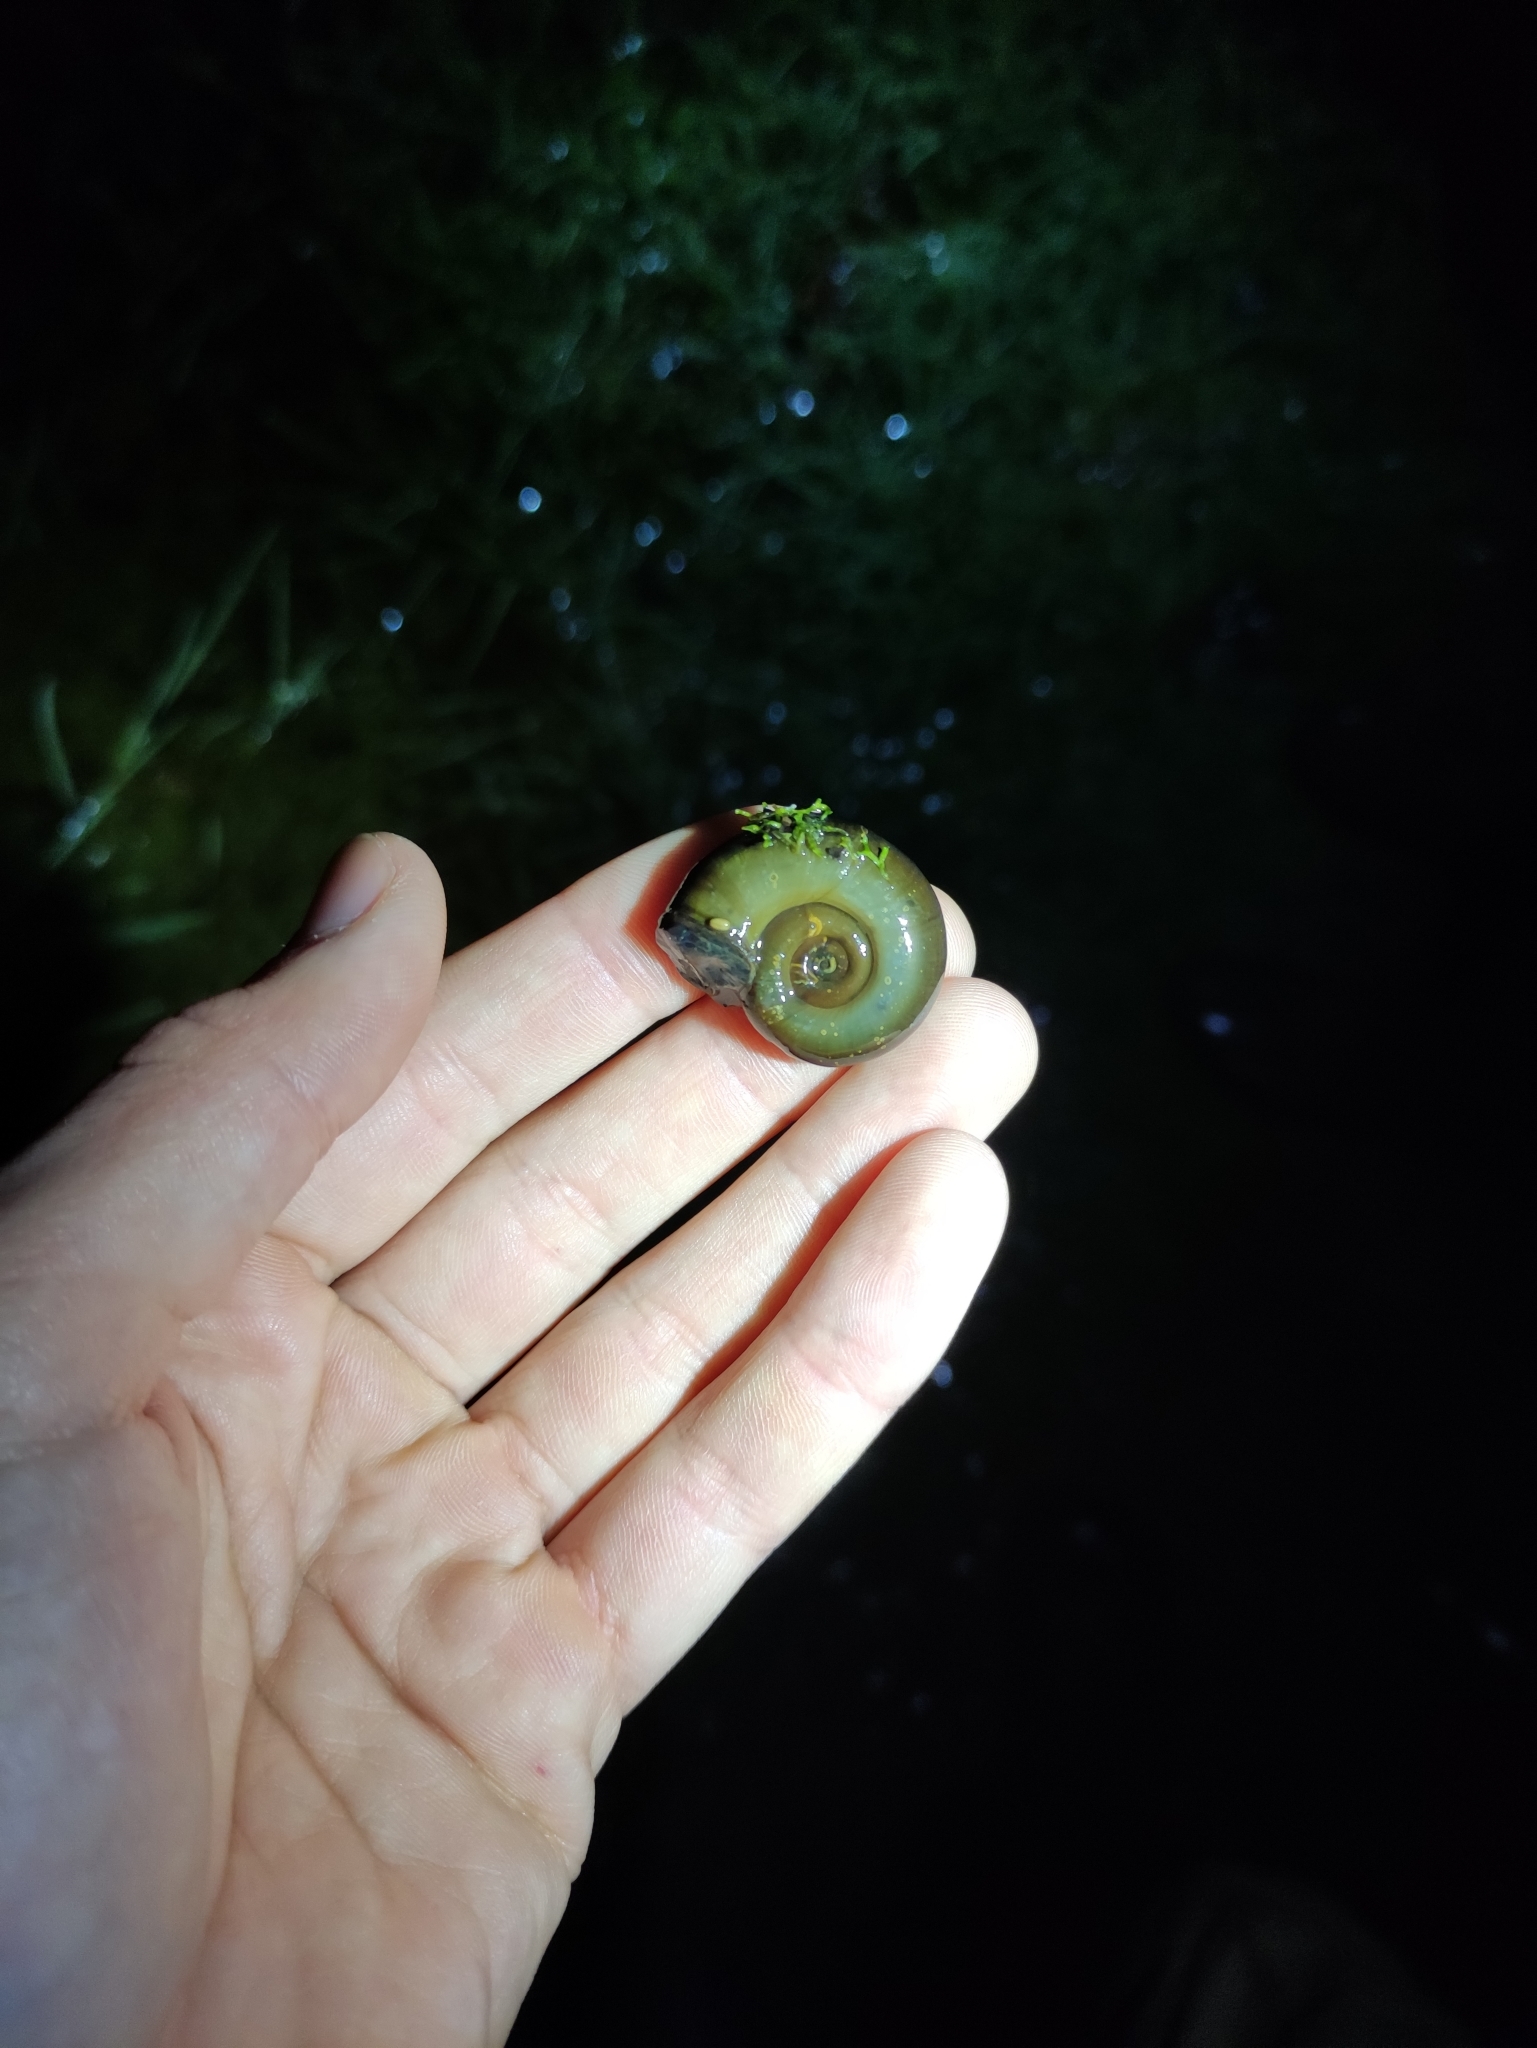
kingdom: Animalia
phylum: Mollusca
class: Gastropoda
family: Planorbidae
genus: Planorbarius
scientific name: Planorbarius corneus
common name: Great ramshorn
